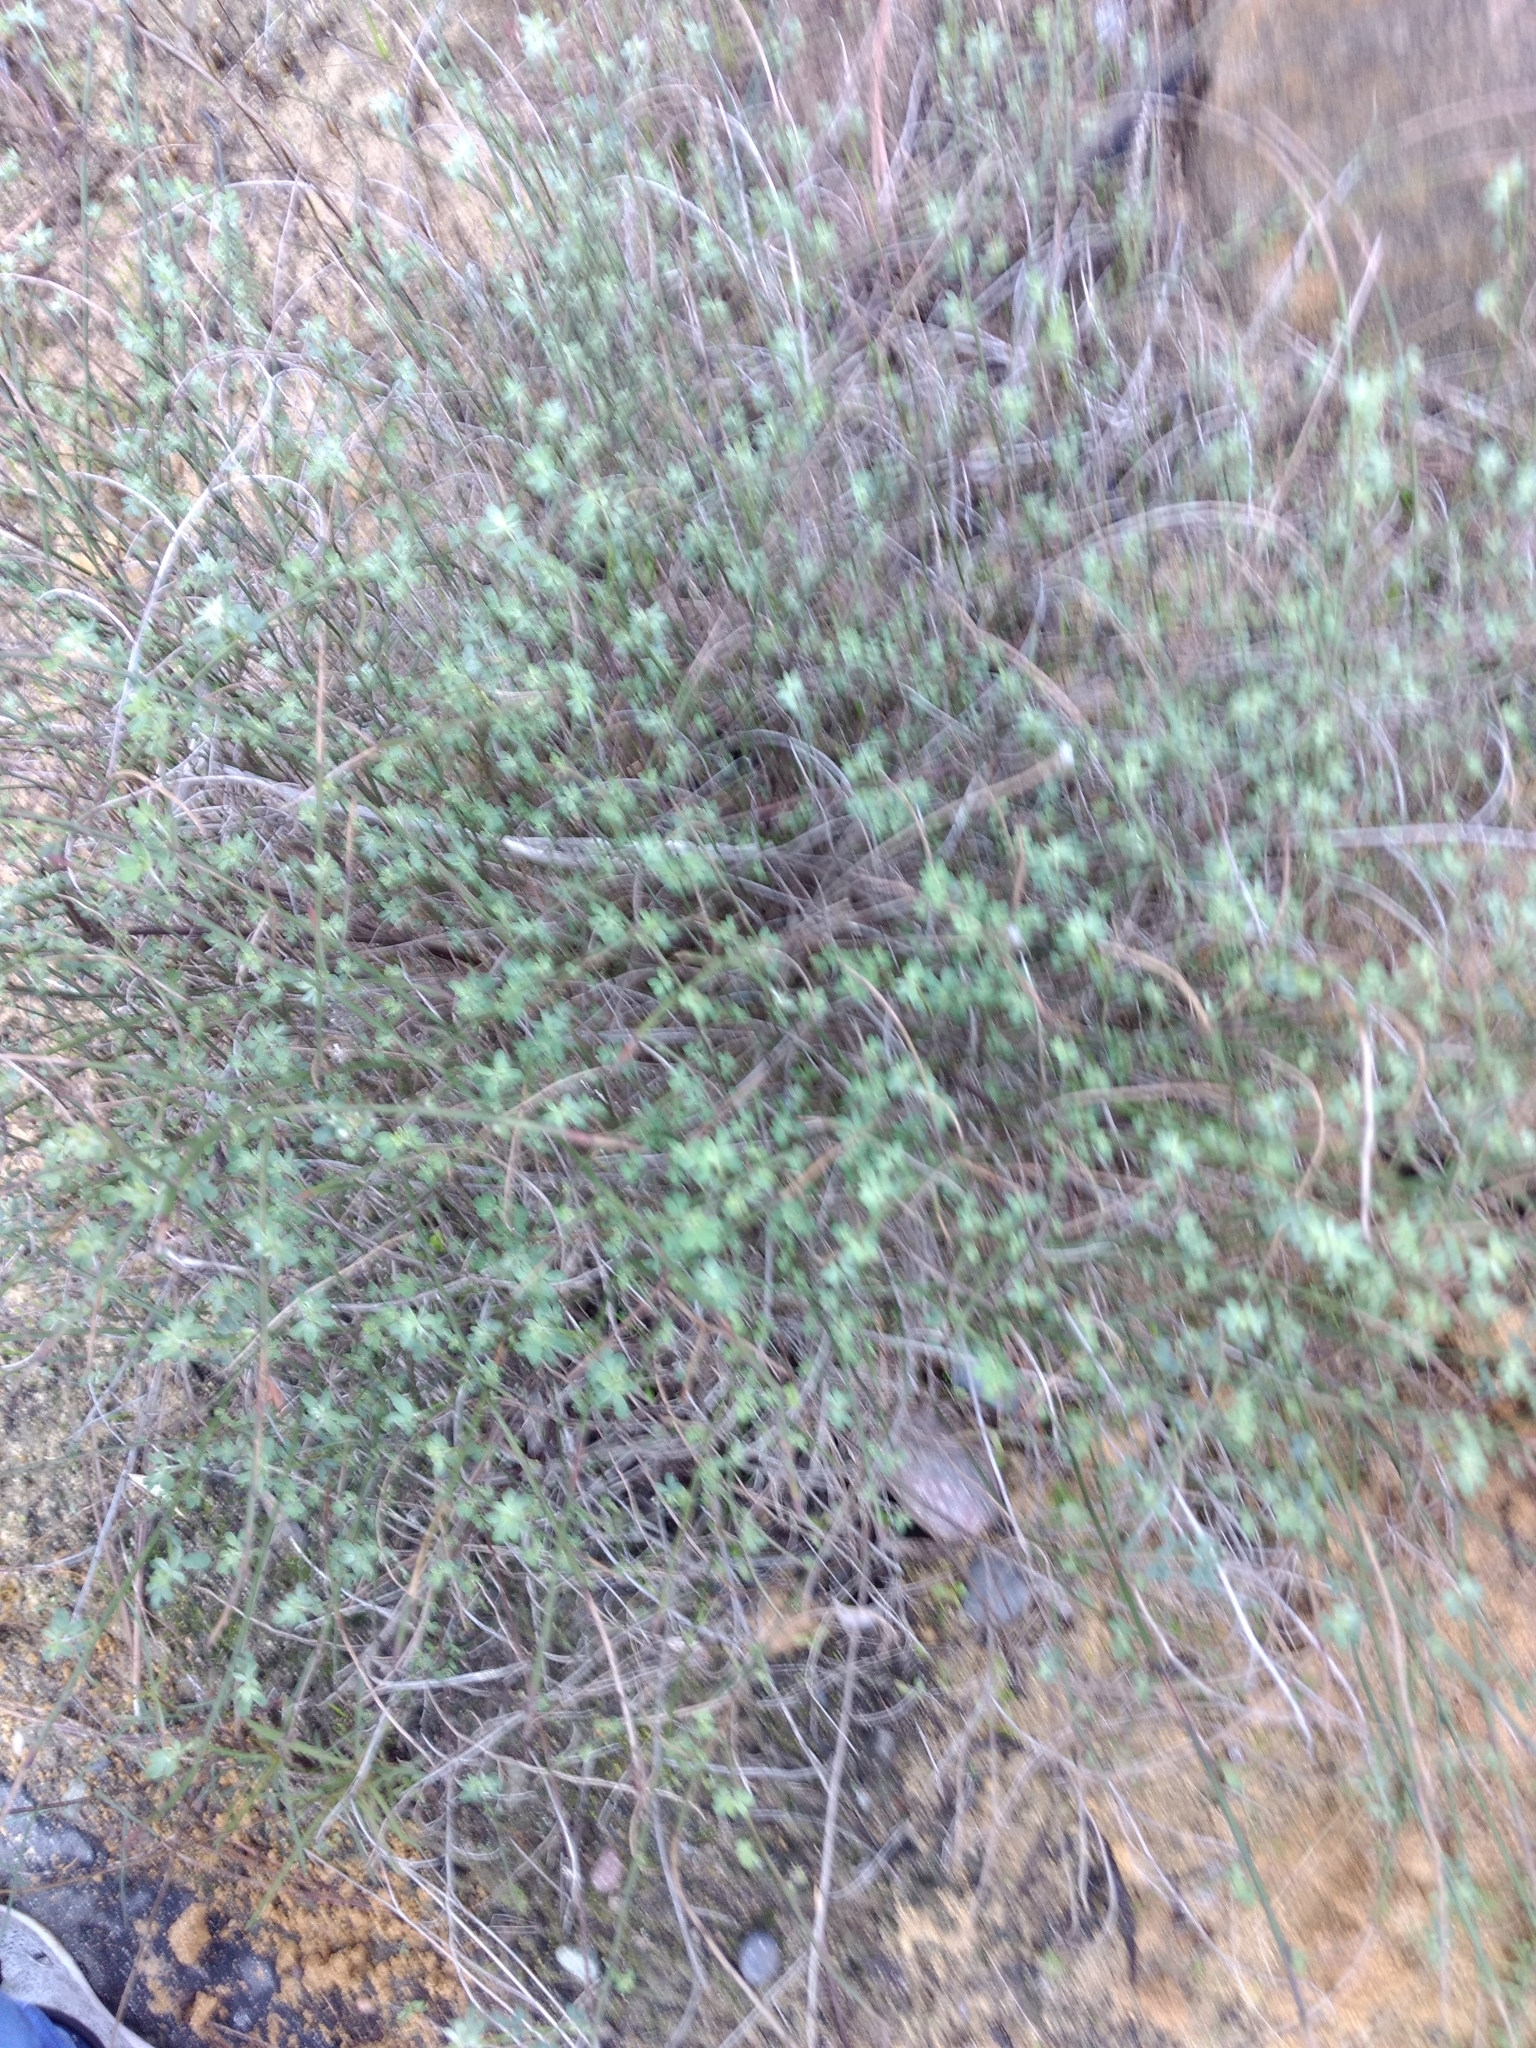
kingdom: Plantae
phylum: Tracheophyta
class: Magnoliopsida
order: Fabales
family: Fabaceae
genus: Acmispon
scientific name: Acmispon glaber
